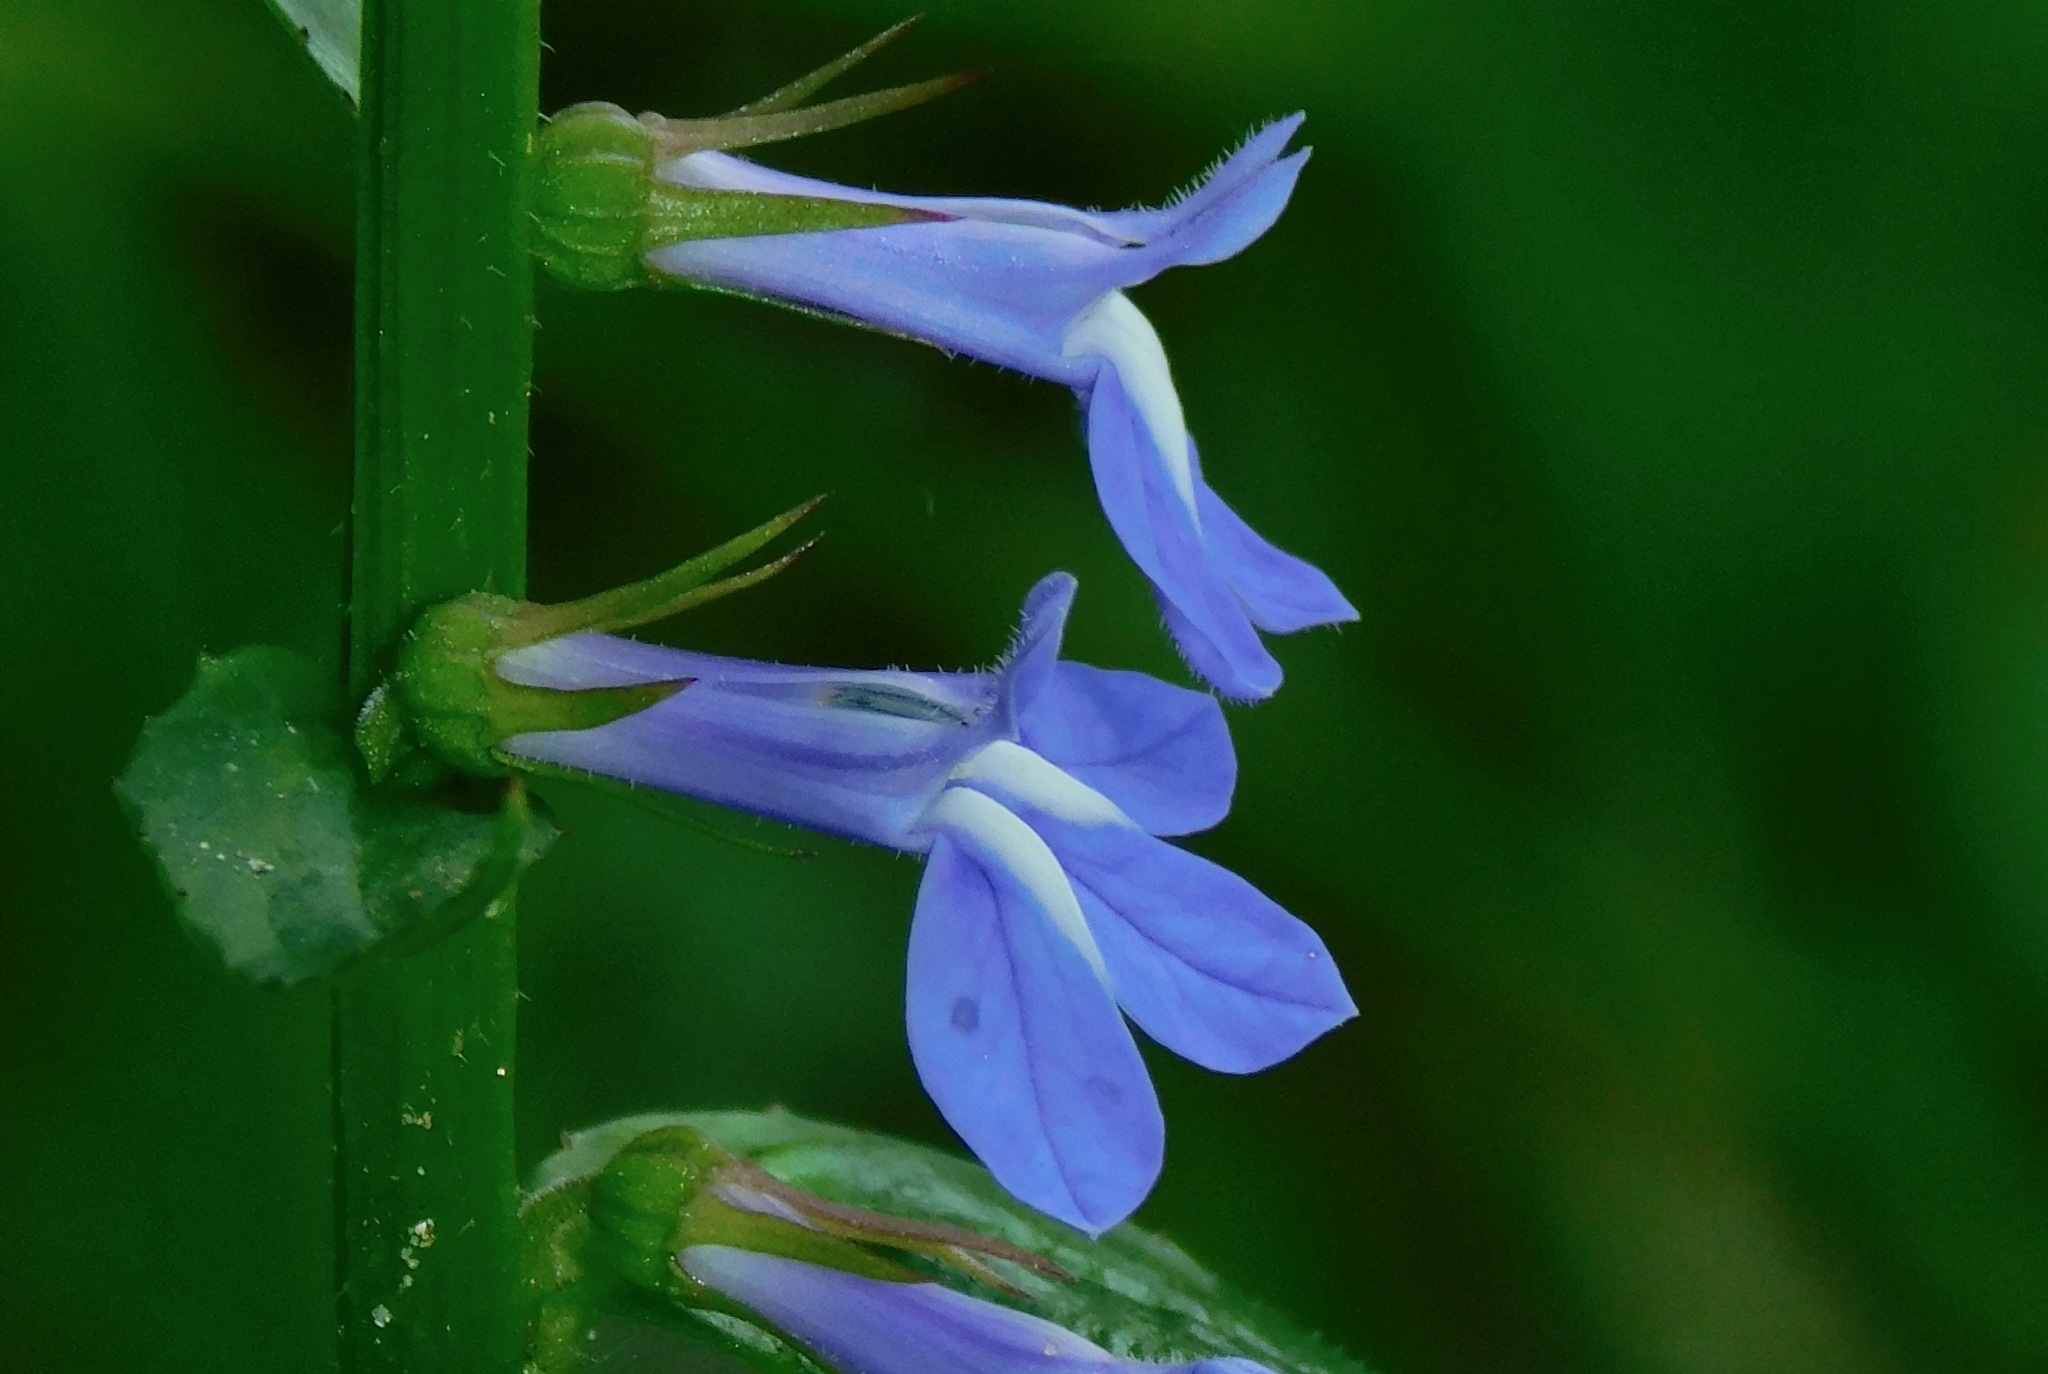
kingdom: Plantae
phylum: Tracheophyta
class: Magnoliopsida
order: Asterales
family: Campanulaceae
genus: Lobelia
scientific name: Lobelia amoena
